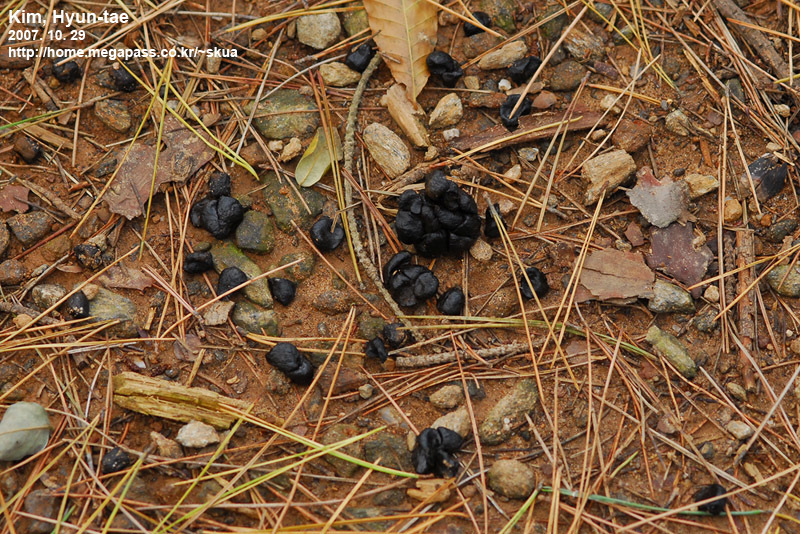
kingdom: Animalia
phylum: Chordata
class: Mammalia
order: Artiodactyla
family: Cervidae
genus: Hydropotes
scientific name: Hydropotes inermis
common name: Chinese water deer
